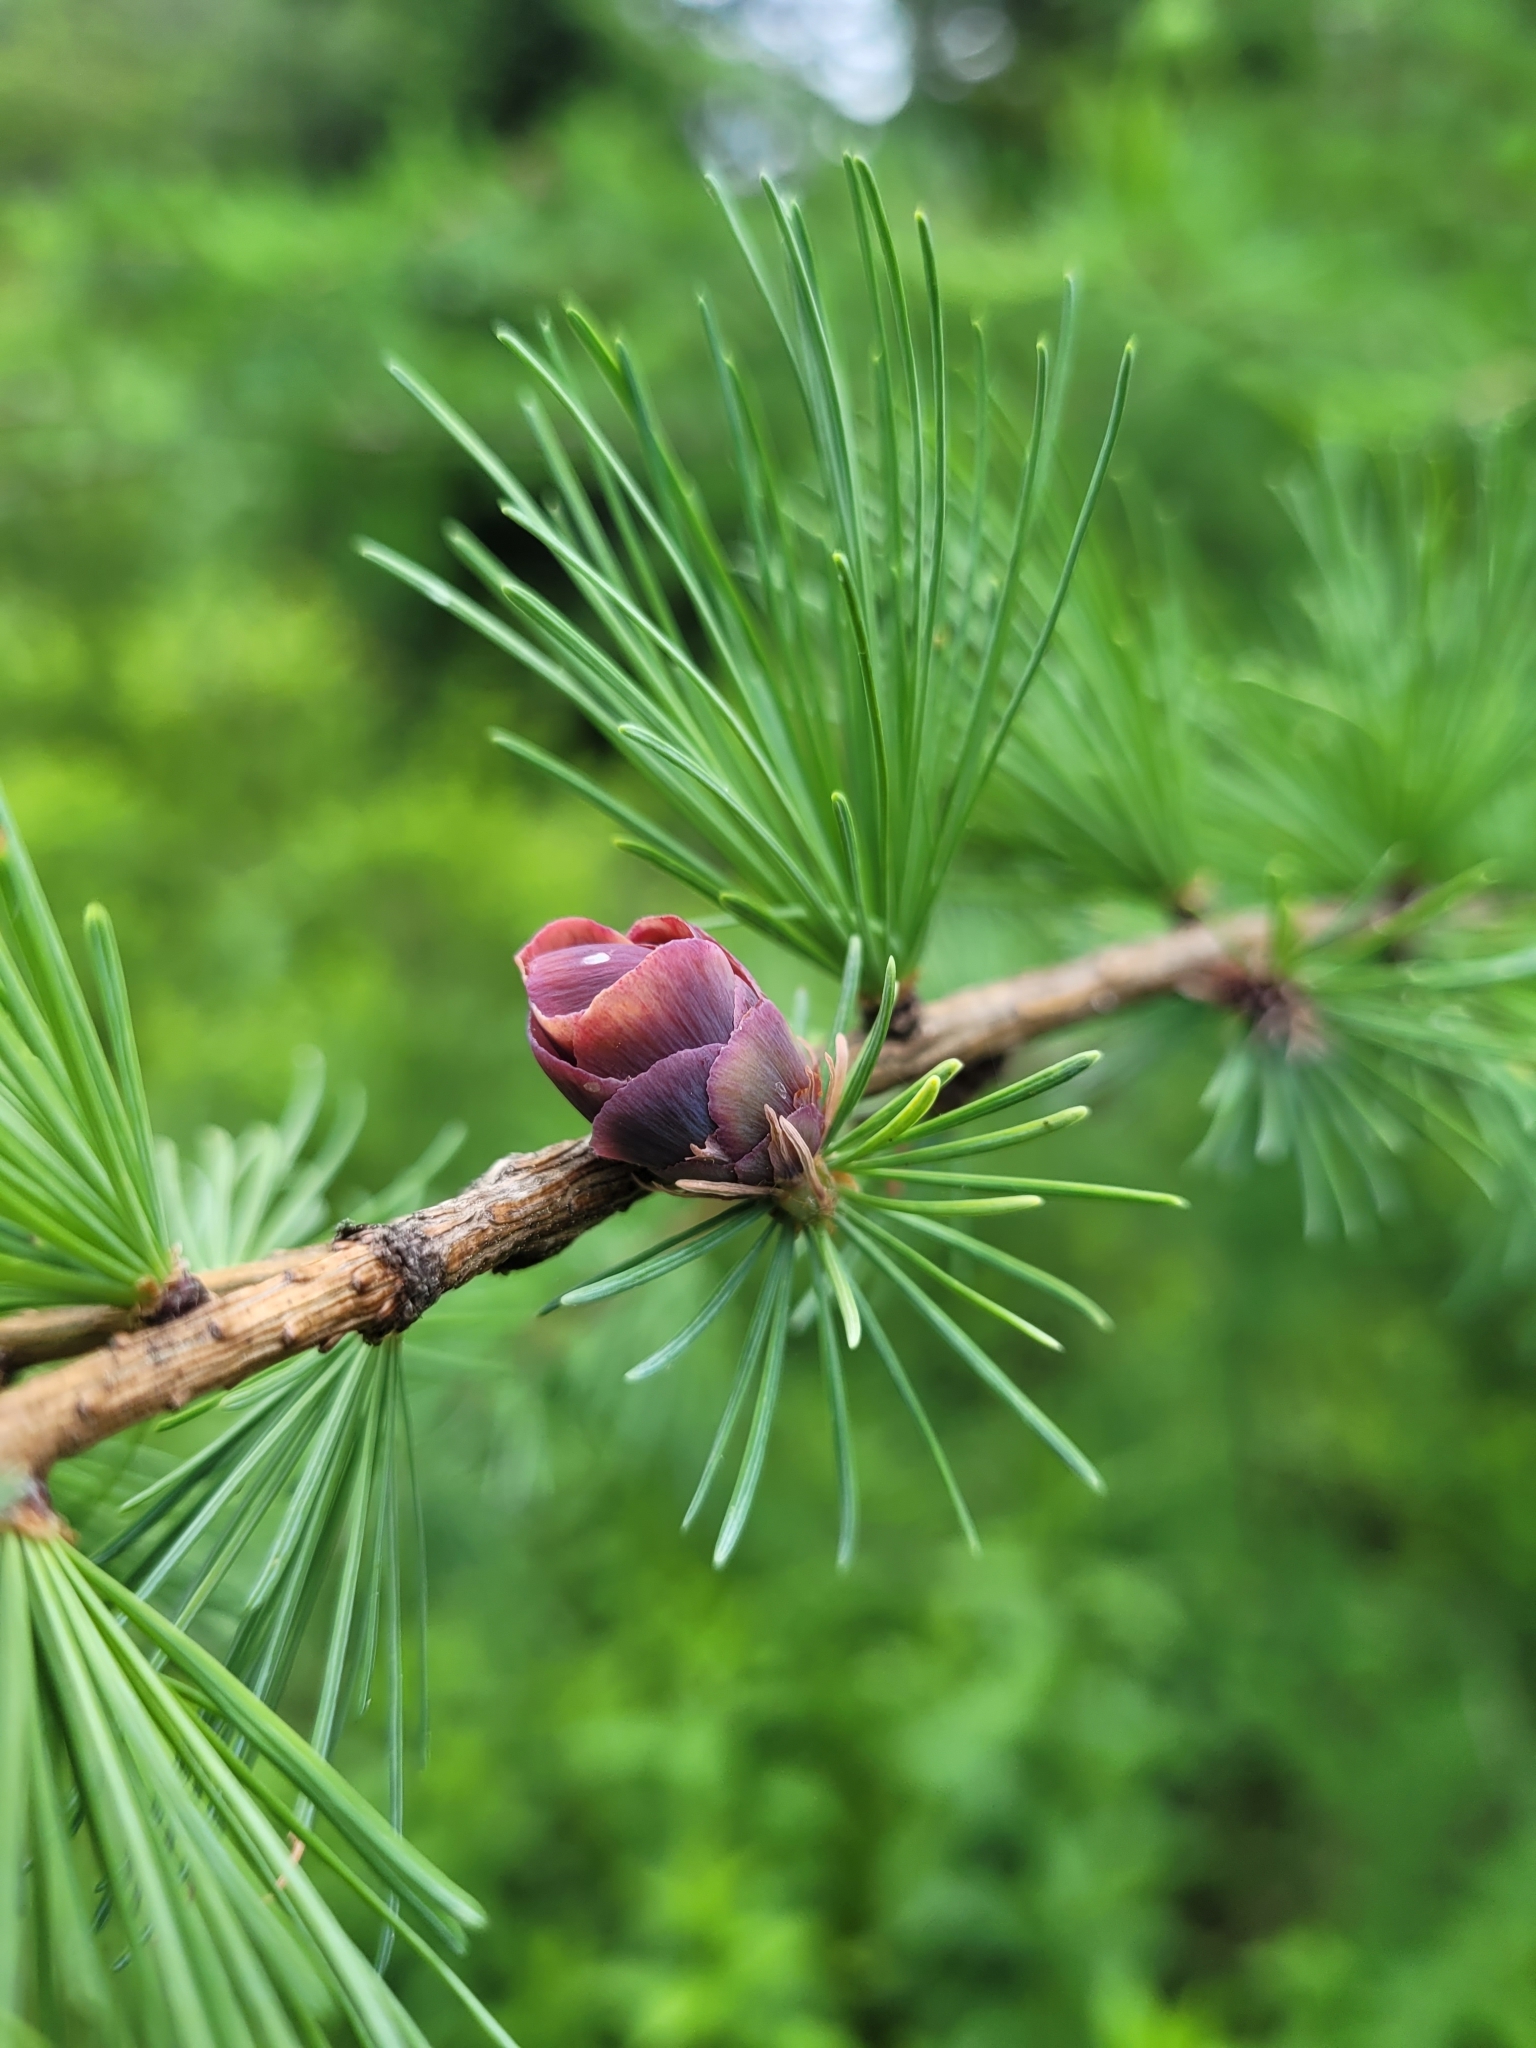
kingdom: Plantae
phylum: Tracheophyta
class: Pinopsida
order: Pinales
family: Pinaceae
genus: Larix
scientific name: Larix laricina
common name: American larch
